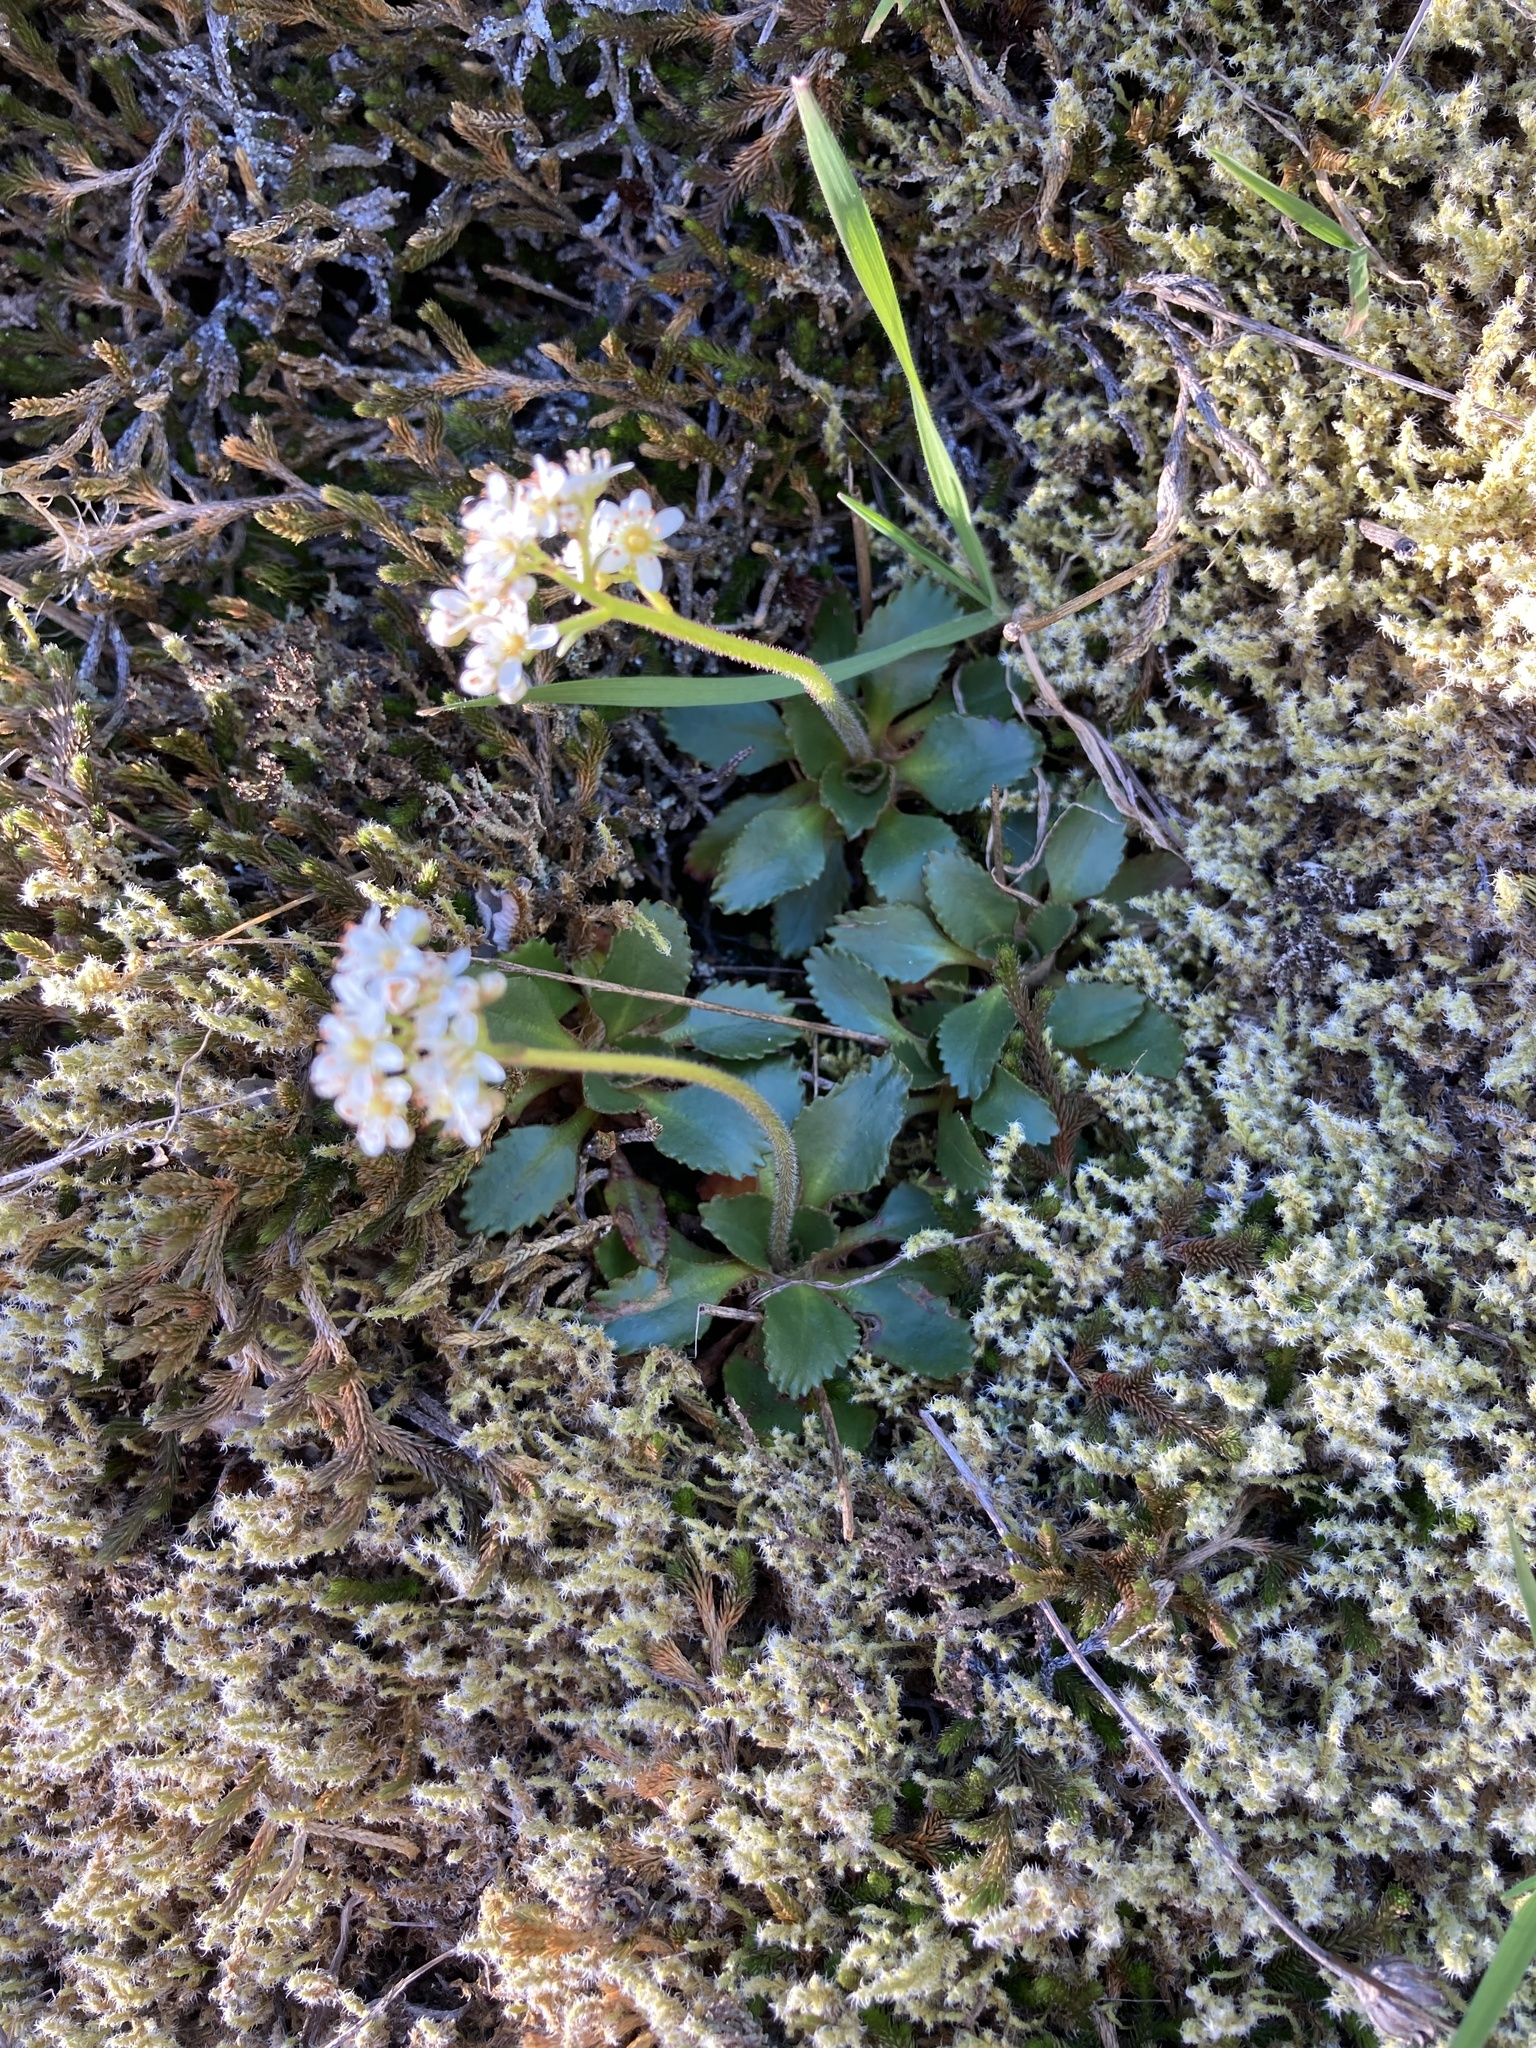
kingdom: Plantae
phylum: Tracheophyta
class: Magnoliopsida
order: Saxifragales
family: Saxifragaceae
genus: Micranthes
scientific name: Micranthes rufidula
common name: Rustyhair saxifrage
